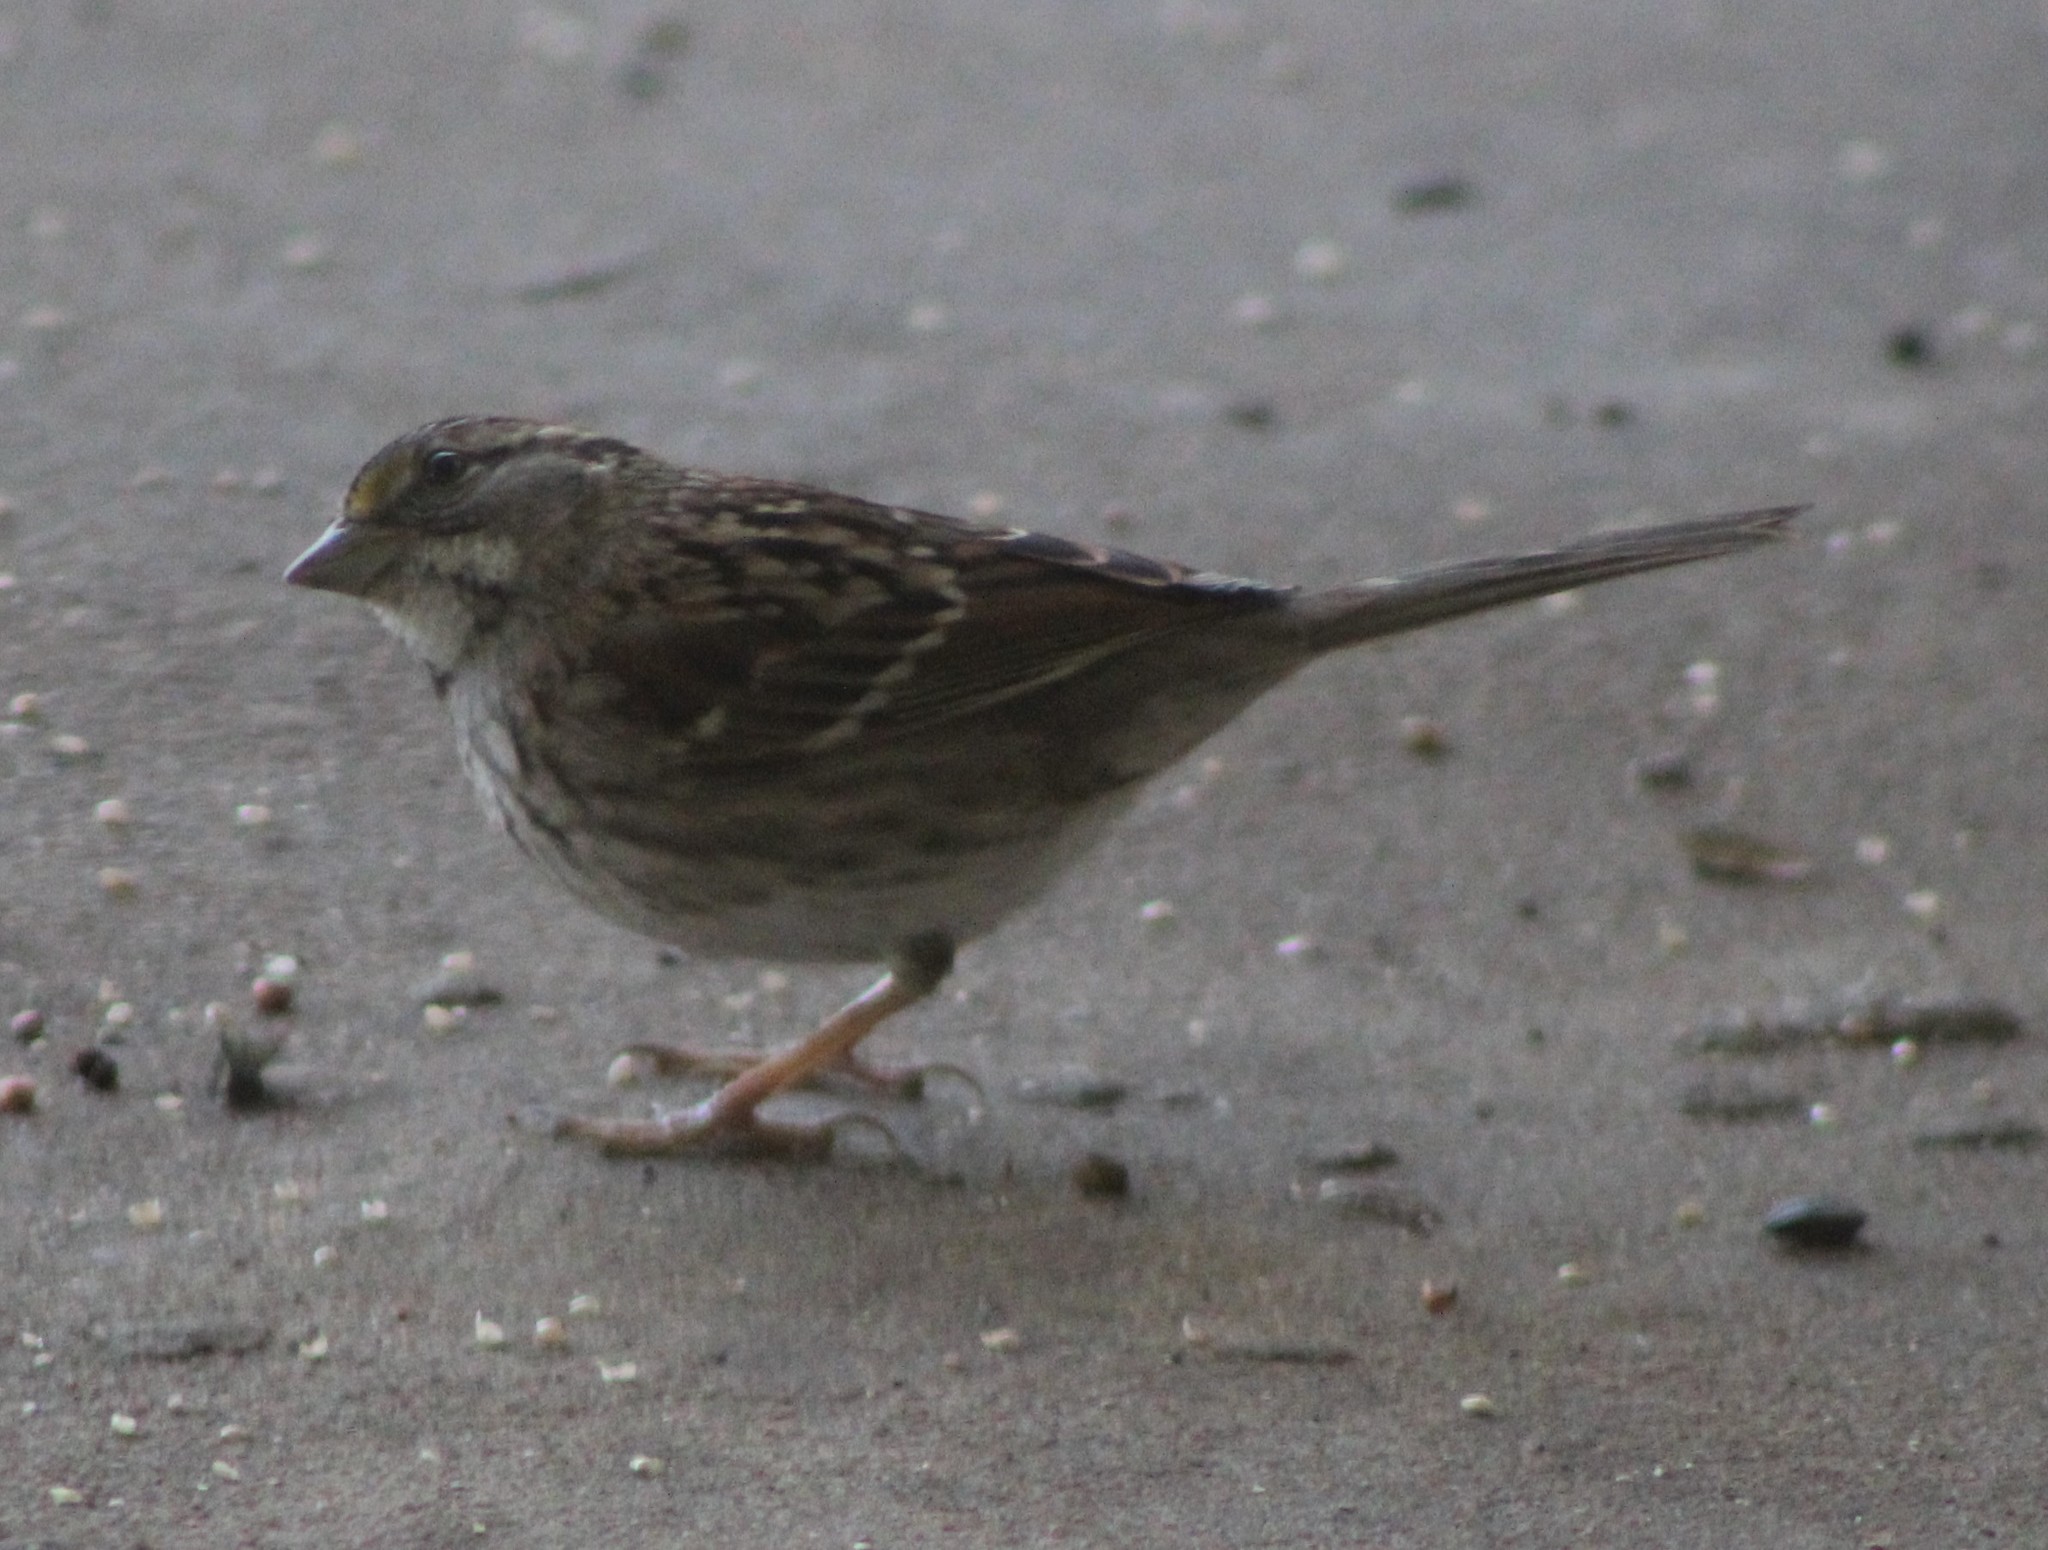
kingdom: Animalia
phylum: Chordata
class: Aves
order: Passeriformes
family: Passerellidae
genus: Zonotrichia
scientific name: Zonotrichia albicollis
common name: White-throated sparrow
